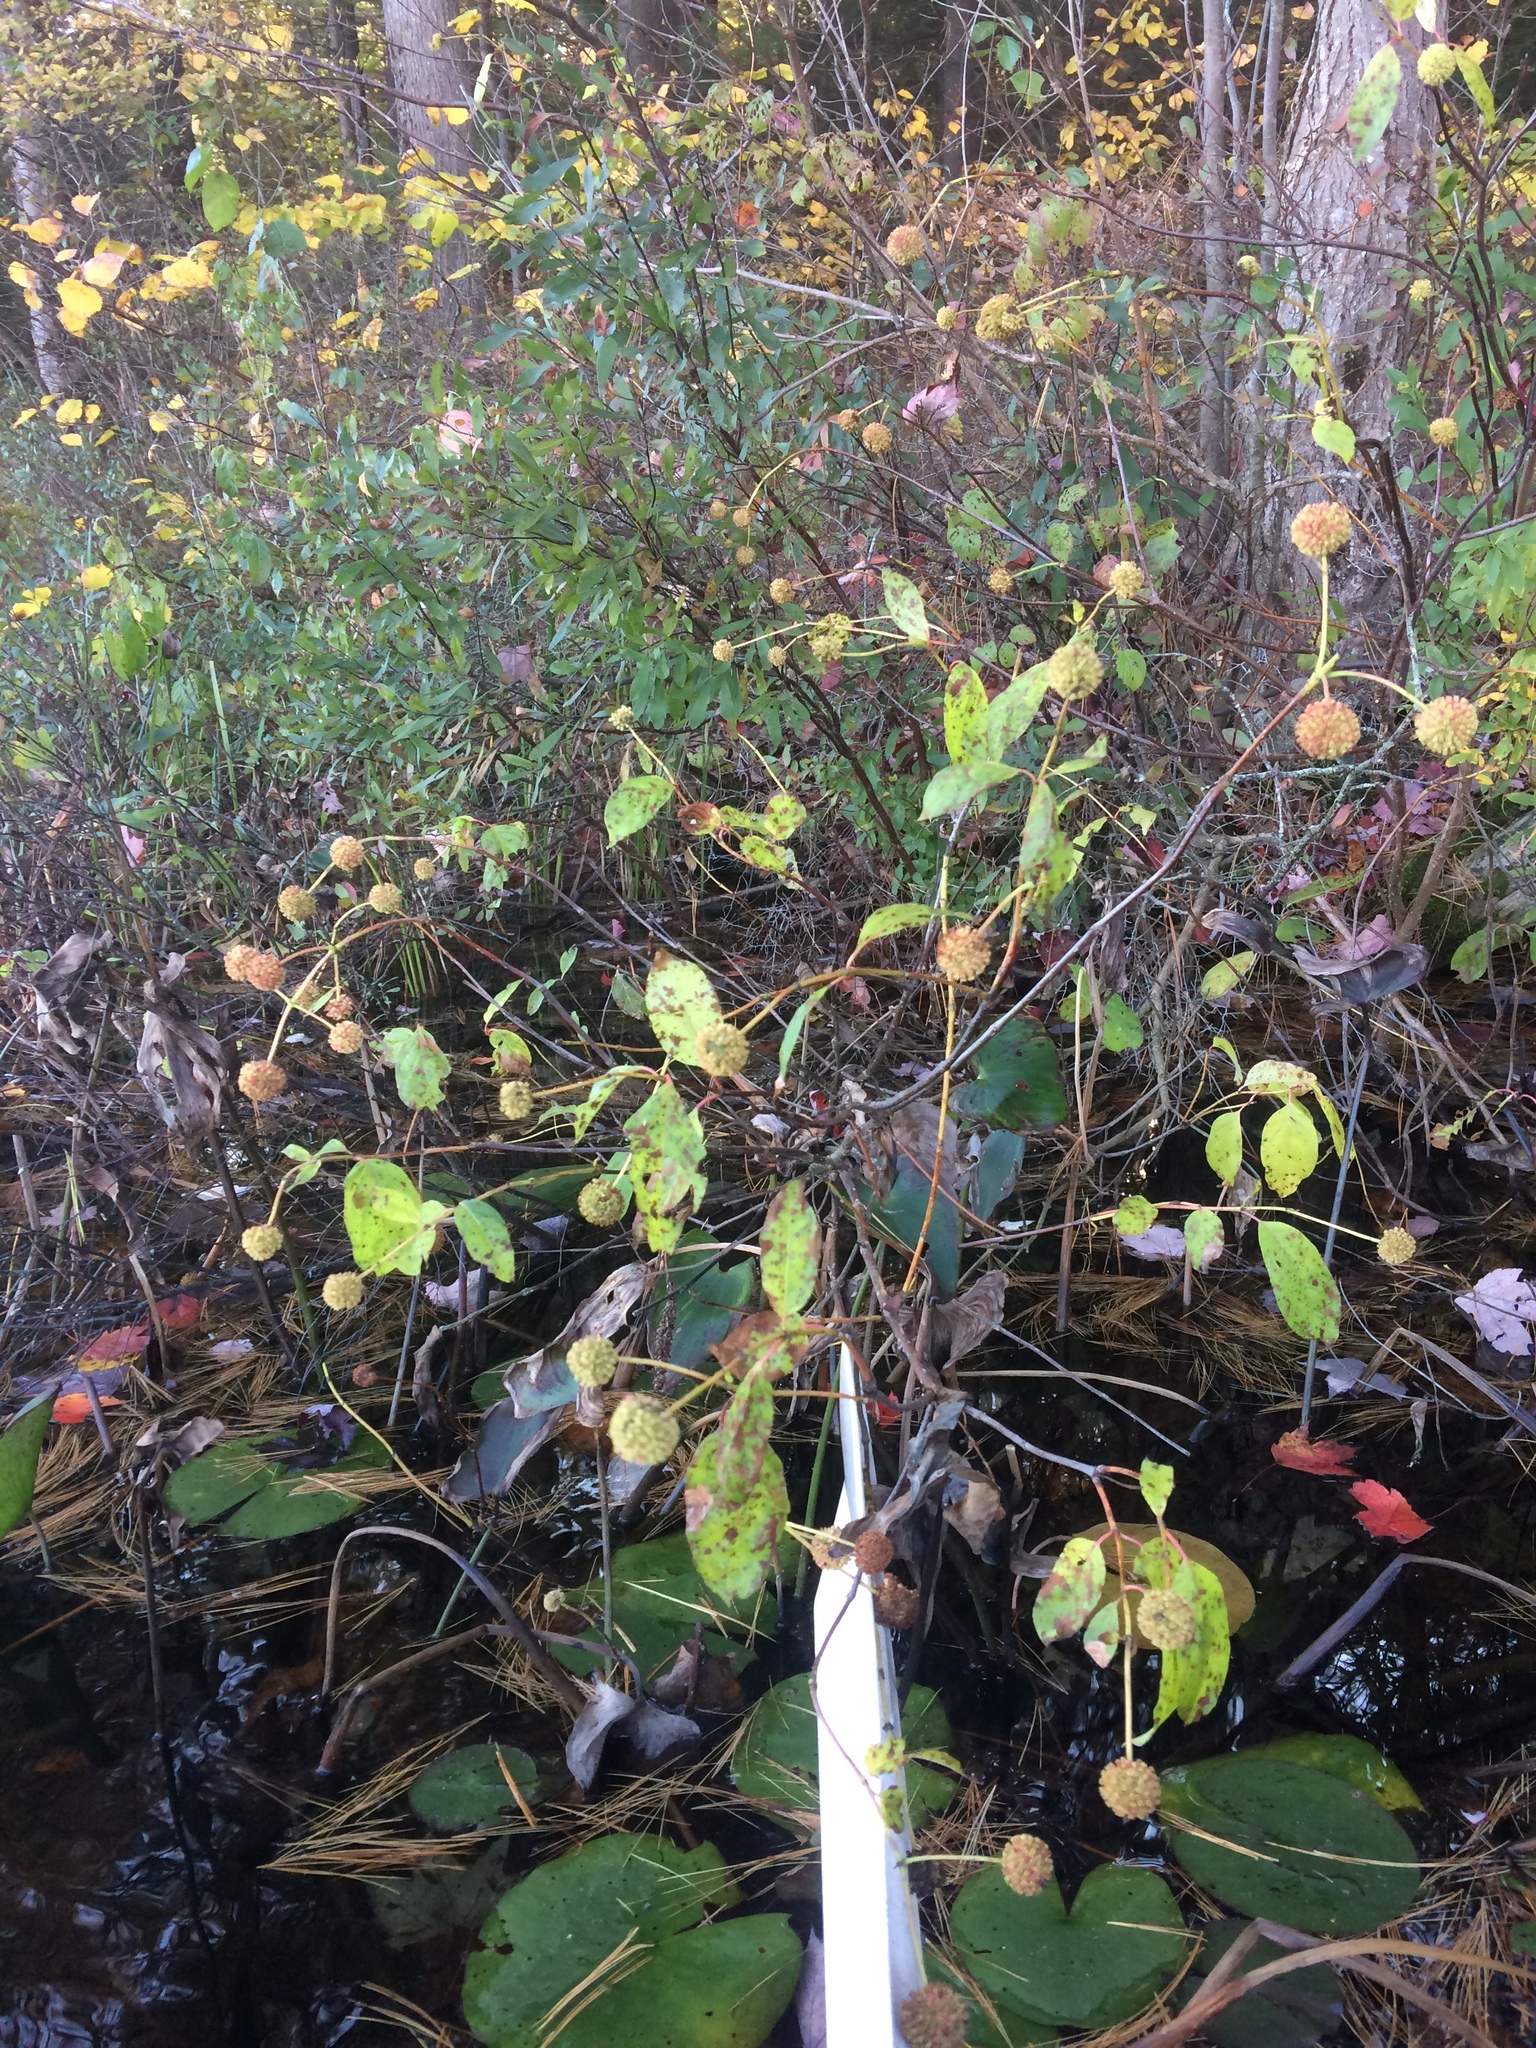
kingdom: Plantae
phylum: Tracheophyta
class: Magnoliopsida
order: Gentianales
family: Rubiaceae
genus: Cephalanthus
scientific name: Cephalanthus occidentalis
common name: Button-willow
